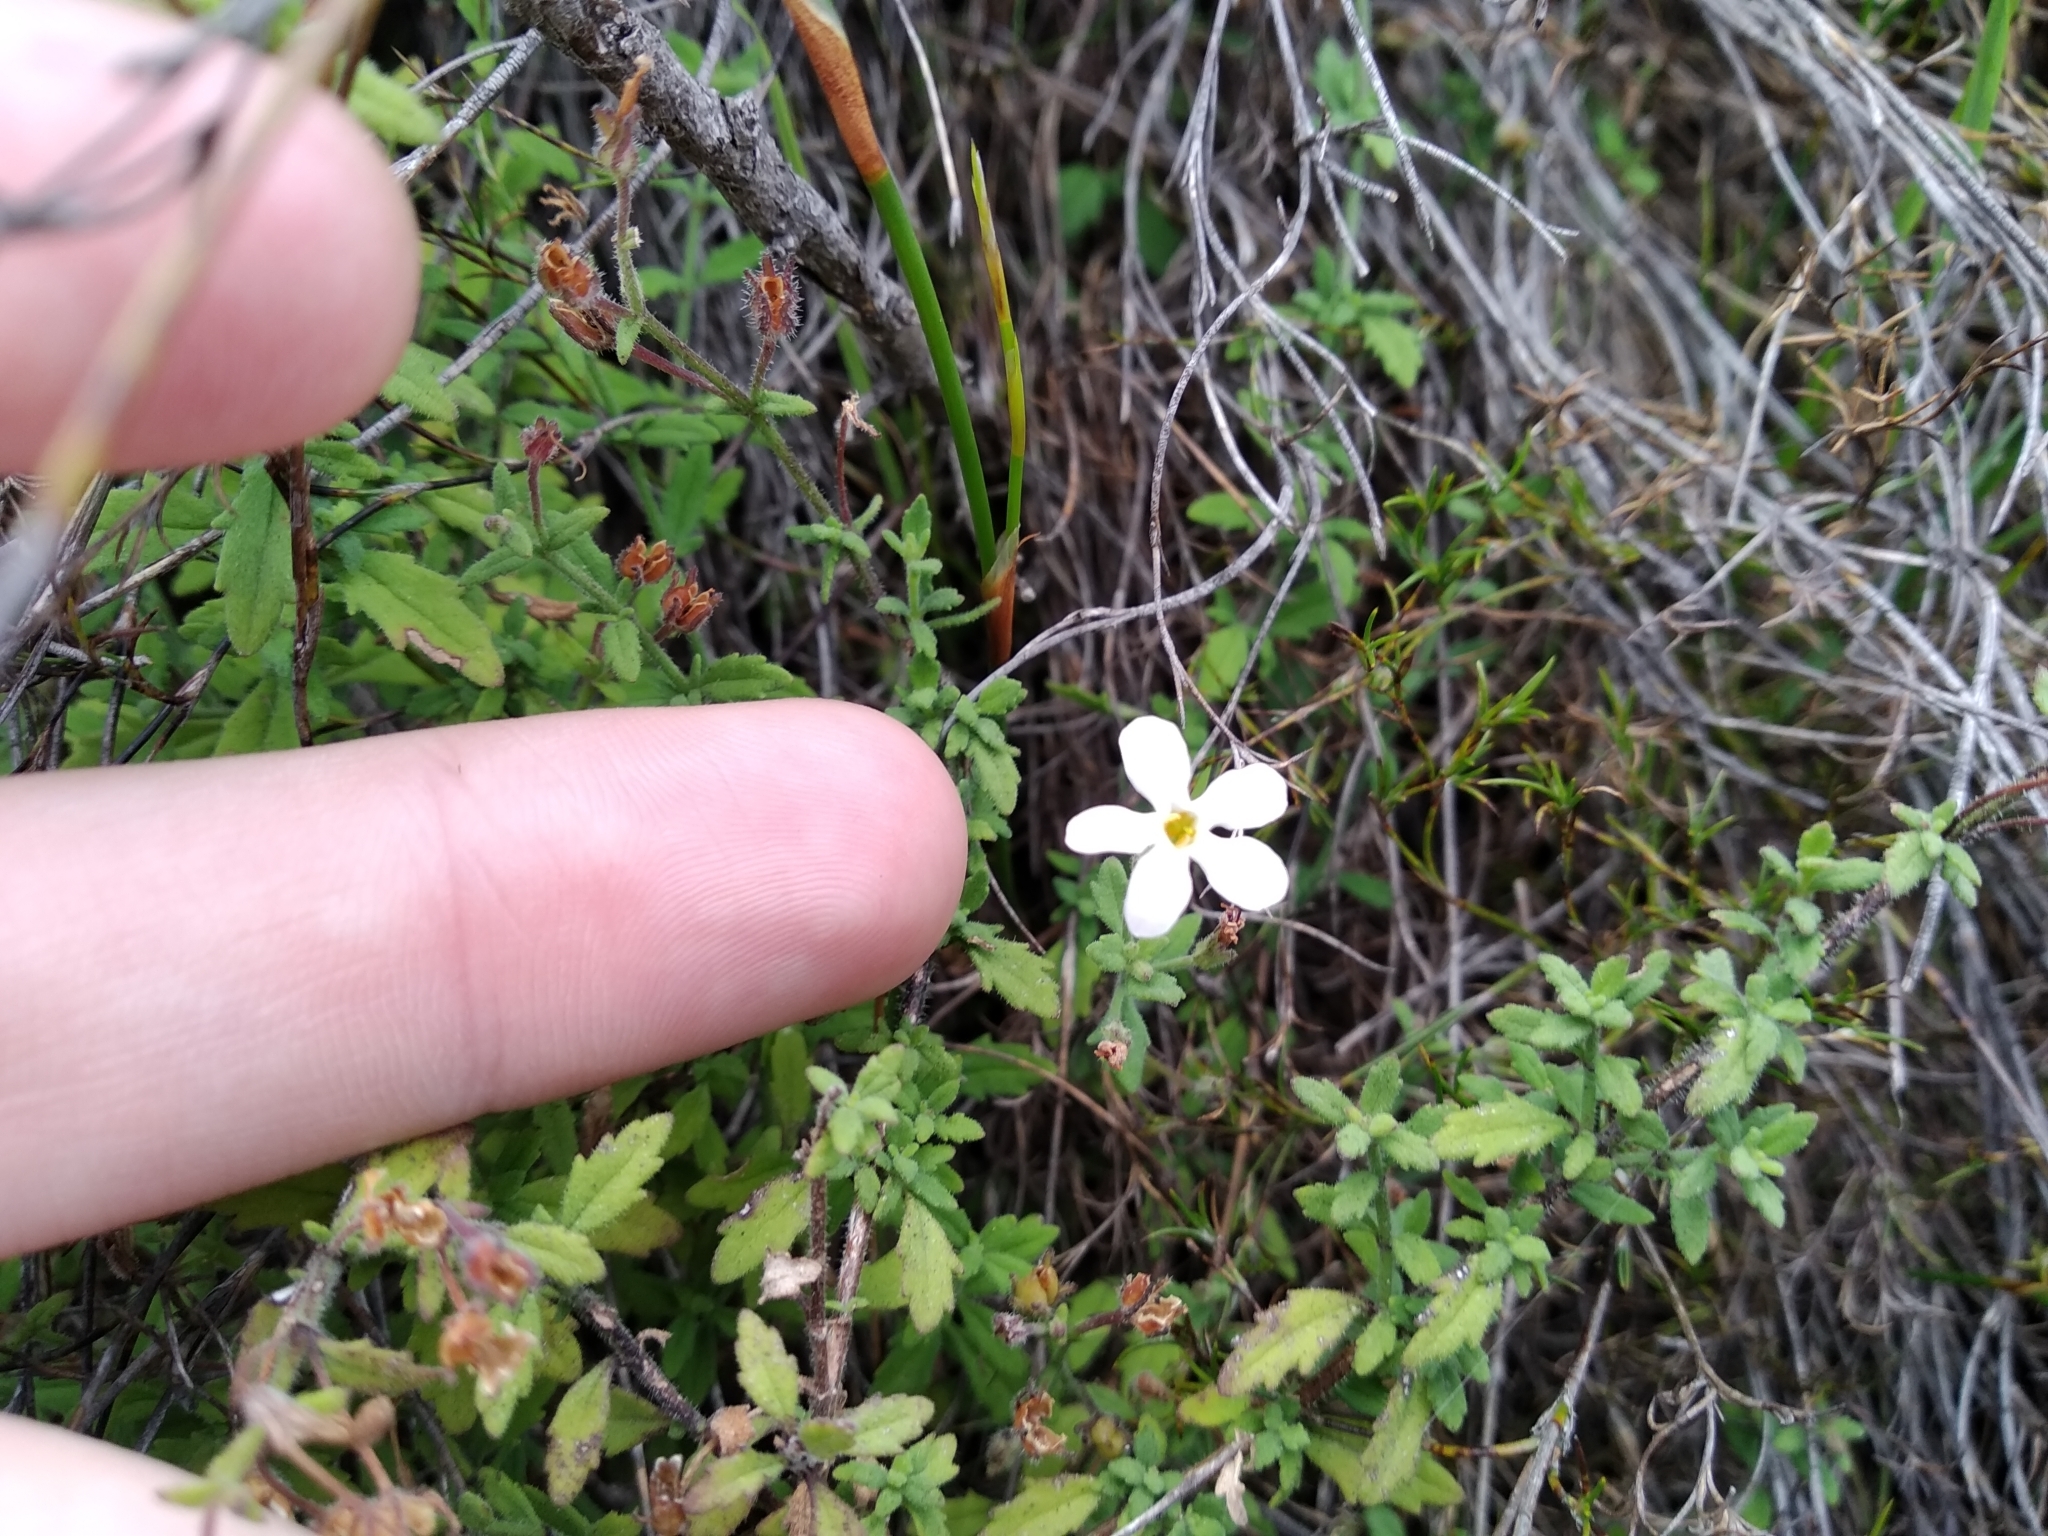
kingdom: Plantae
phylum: Tracheophyta
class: Magnoliopsida
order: Lamiales
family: Scrophulariaceae
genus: Chaenostoma
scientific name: Chaenostoma hispidum
